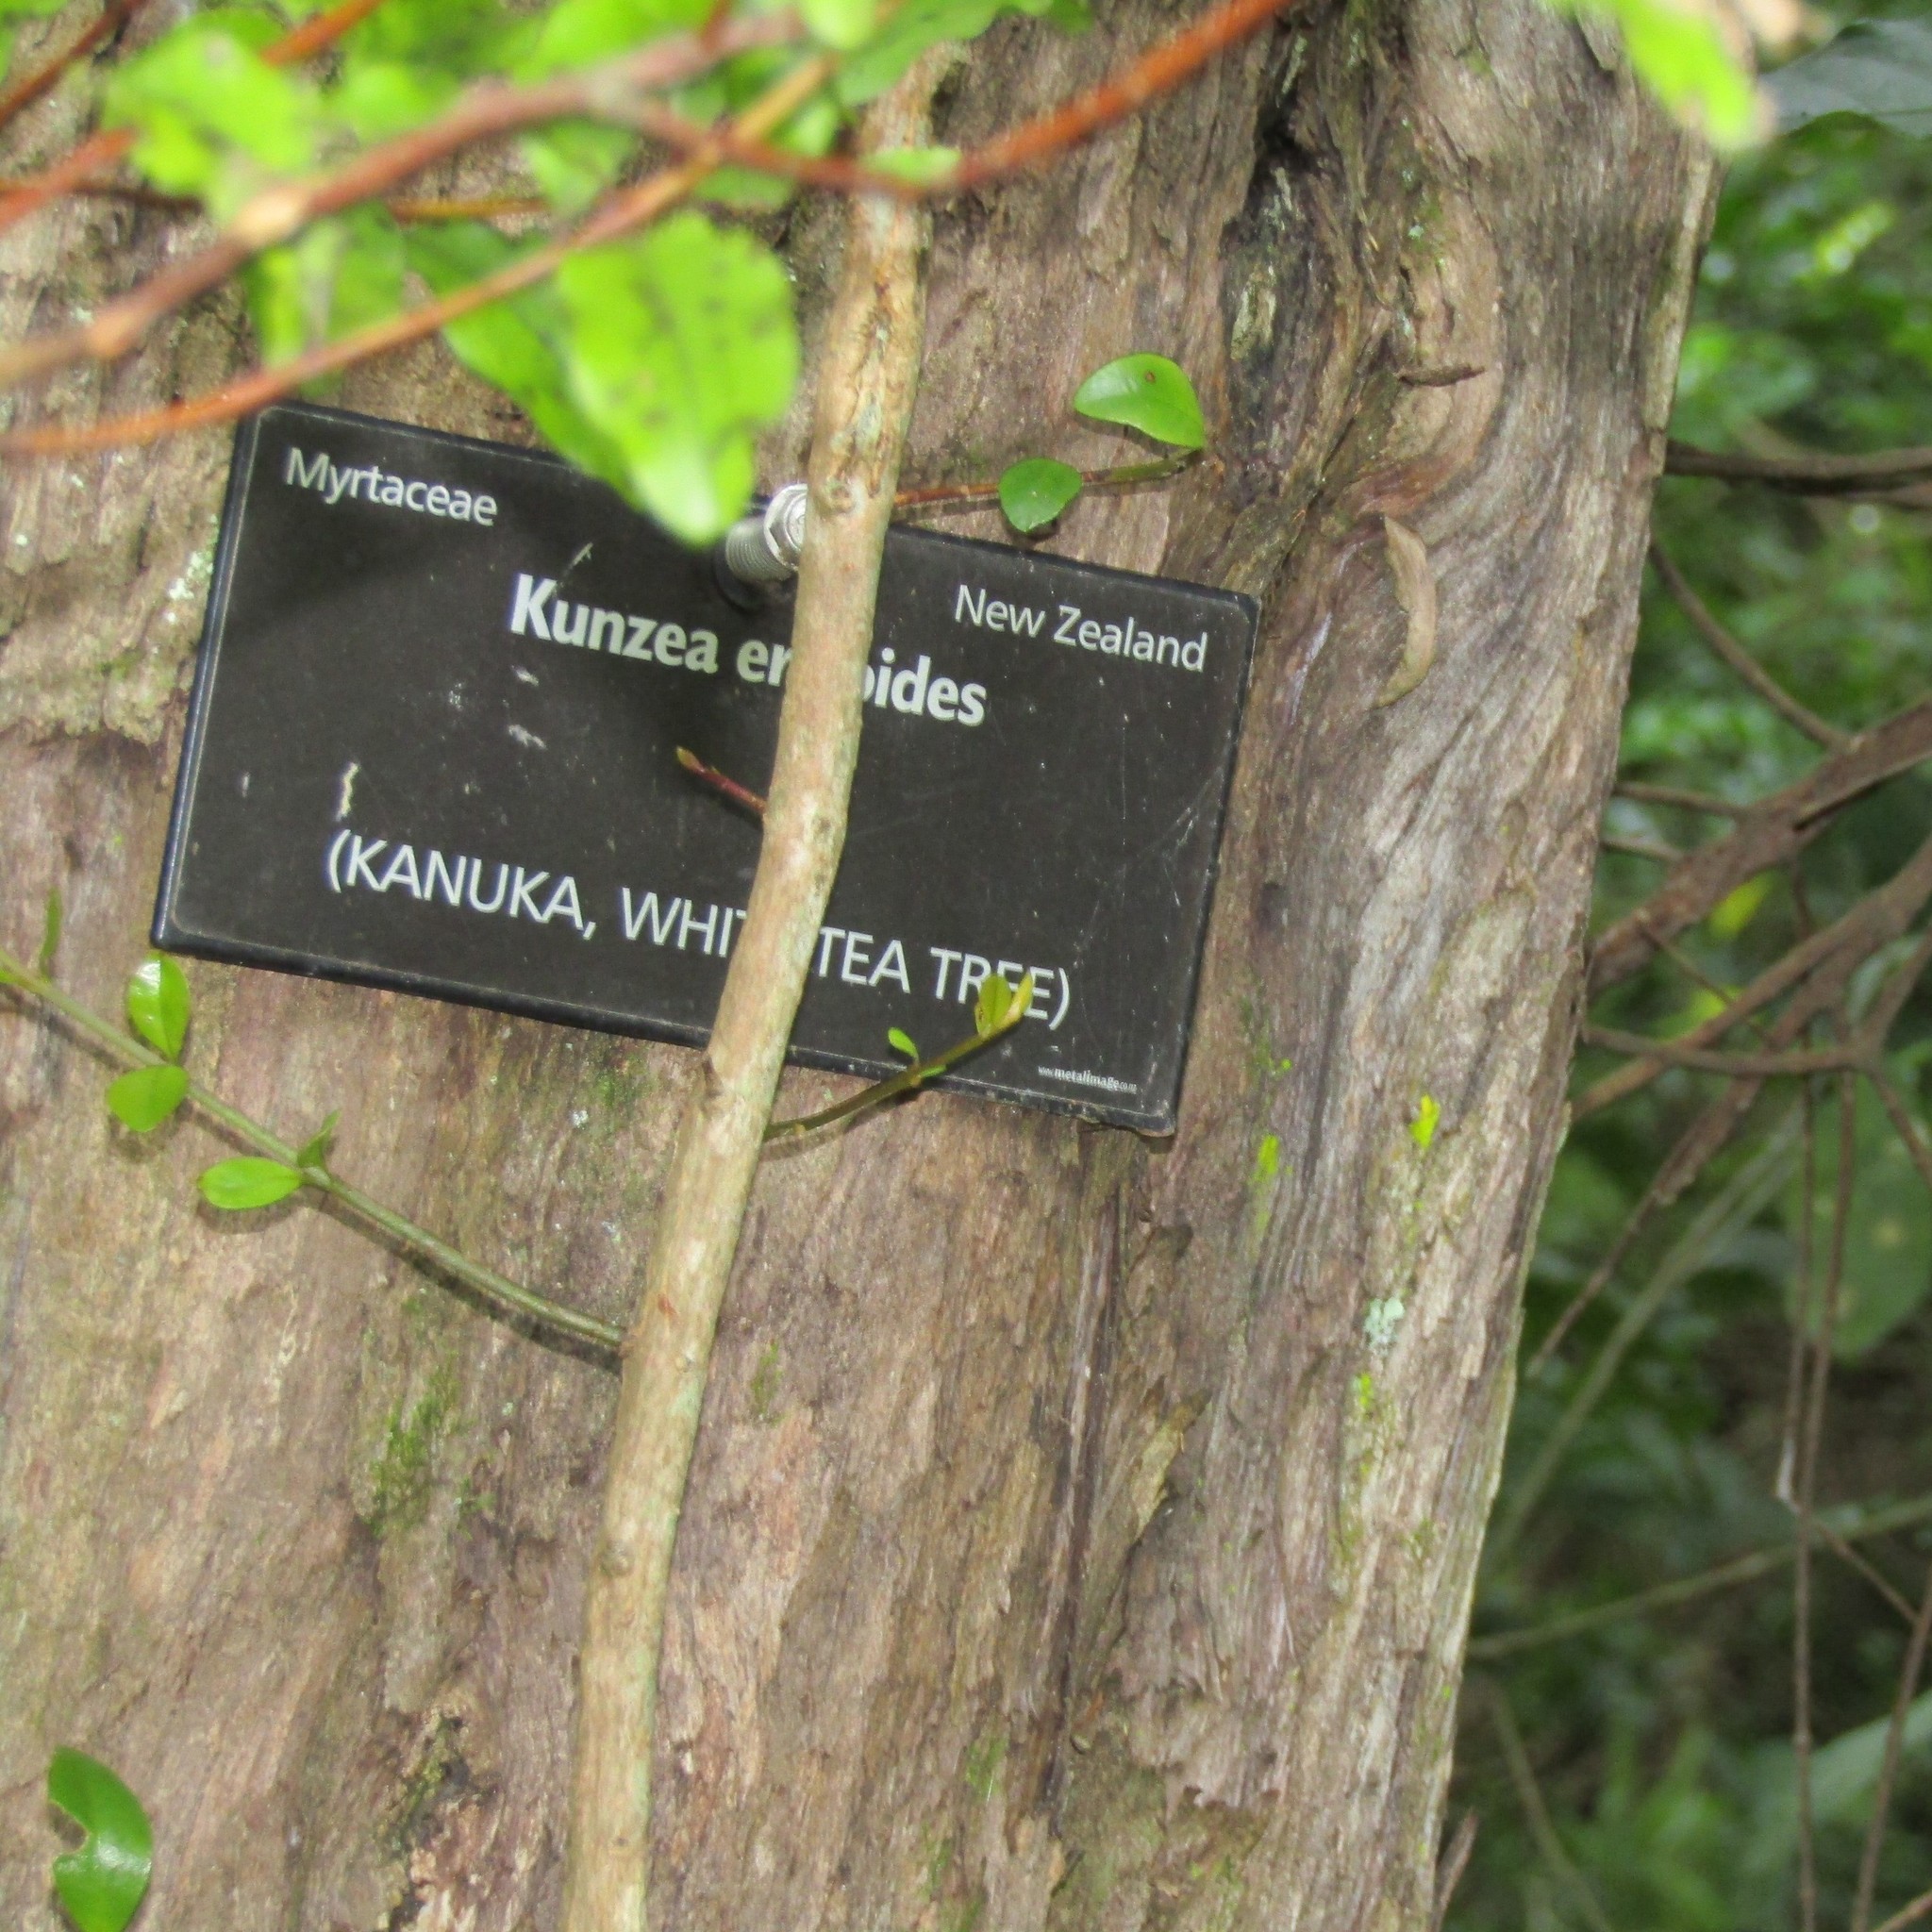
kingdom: Plantae
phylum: Tracheophyta
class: Magnoliopsida
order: Myrtales
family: Myrtaceae
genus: Kunzea
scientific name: Kunzea ericoides
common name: Burgan
